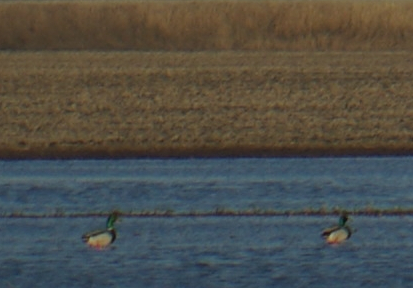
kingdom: Animalia
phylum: Chordata
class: Aves
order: Anseriformes
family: Anatidae
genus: Anas
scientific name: Anas platyrhynchos
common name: Mallard
